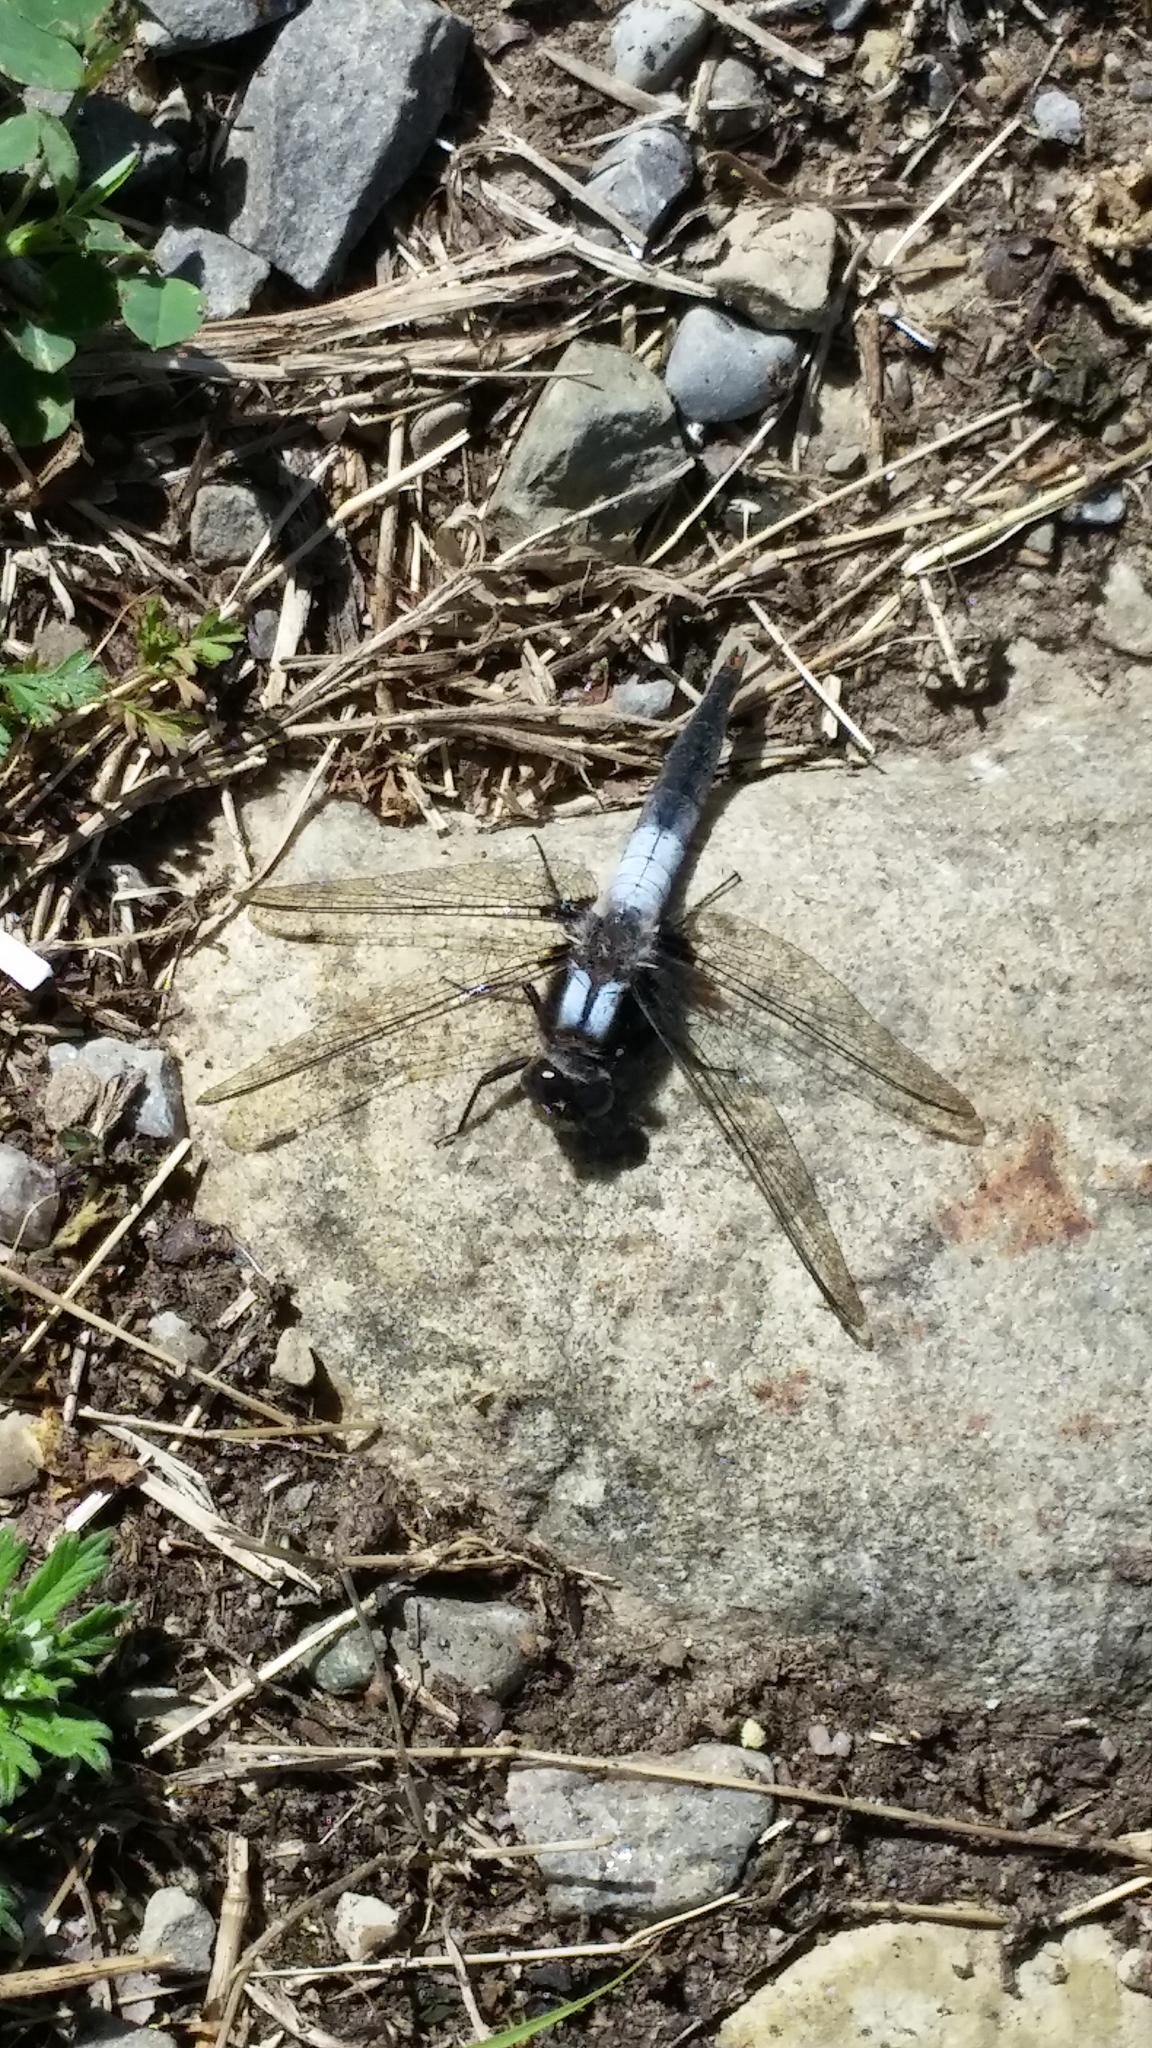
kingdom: Animalia
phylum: Arthropoda
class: Insecta
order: Odonata
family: Libellulidae
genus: Ladona
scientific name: Ladona julia
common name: Chalk-fronted corporal
